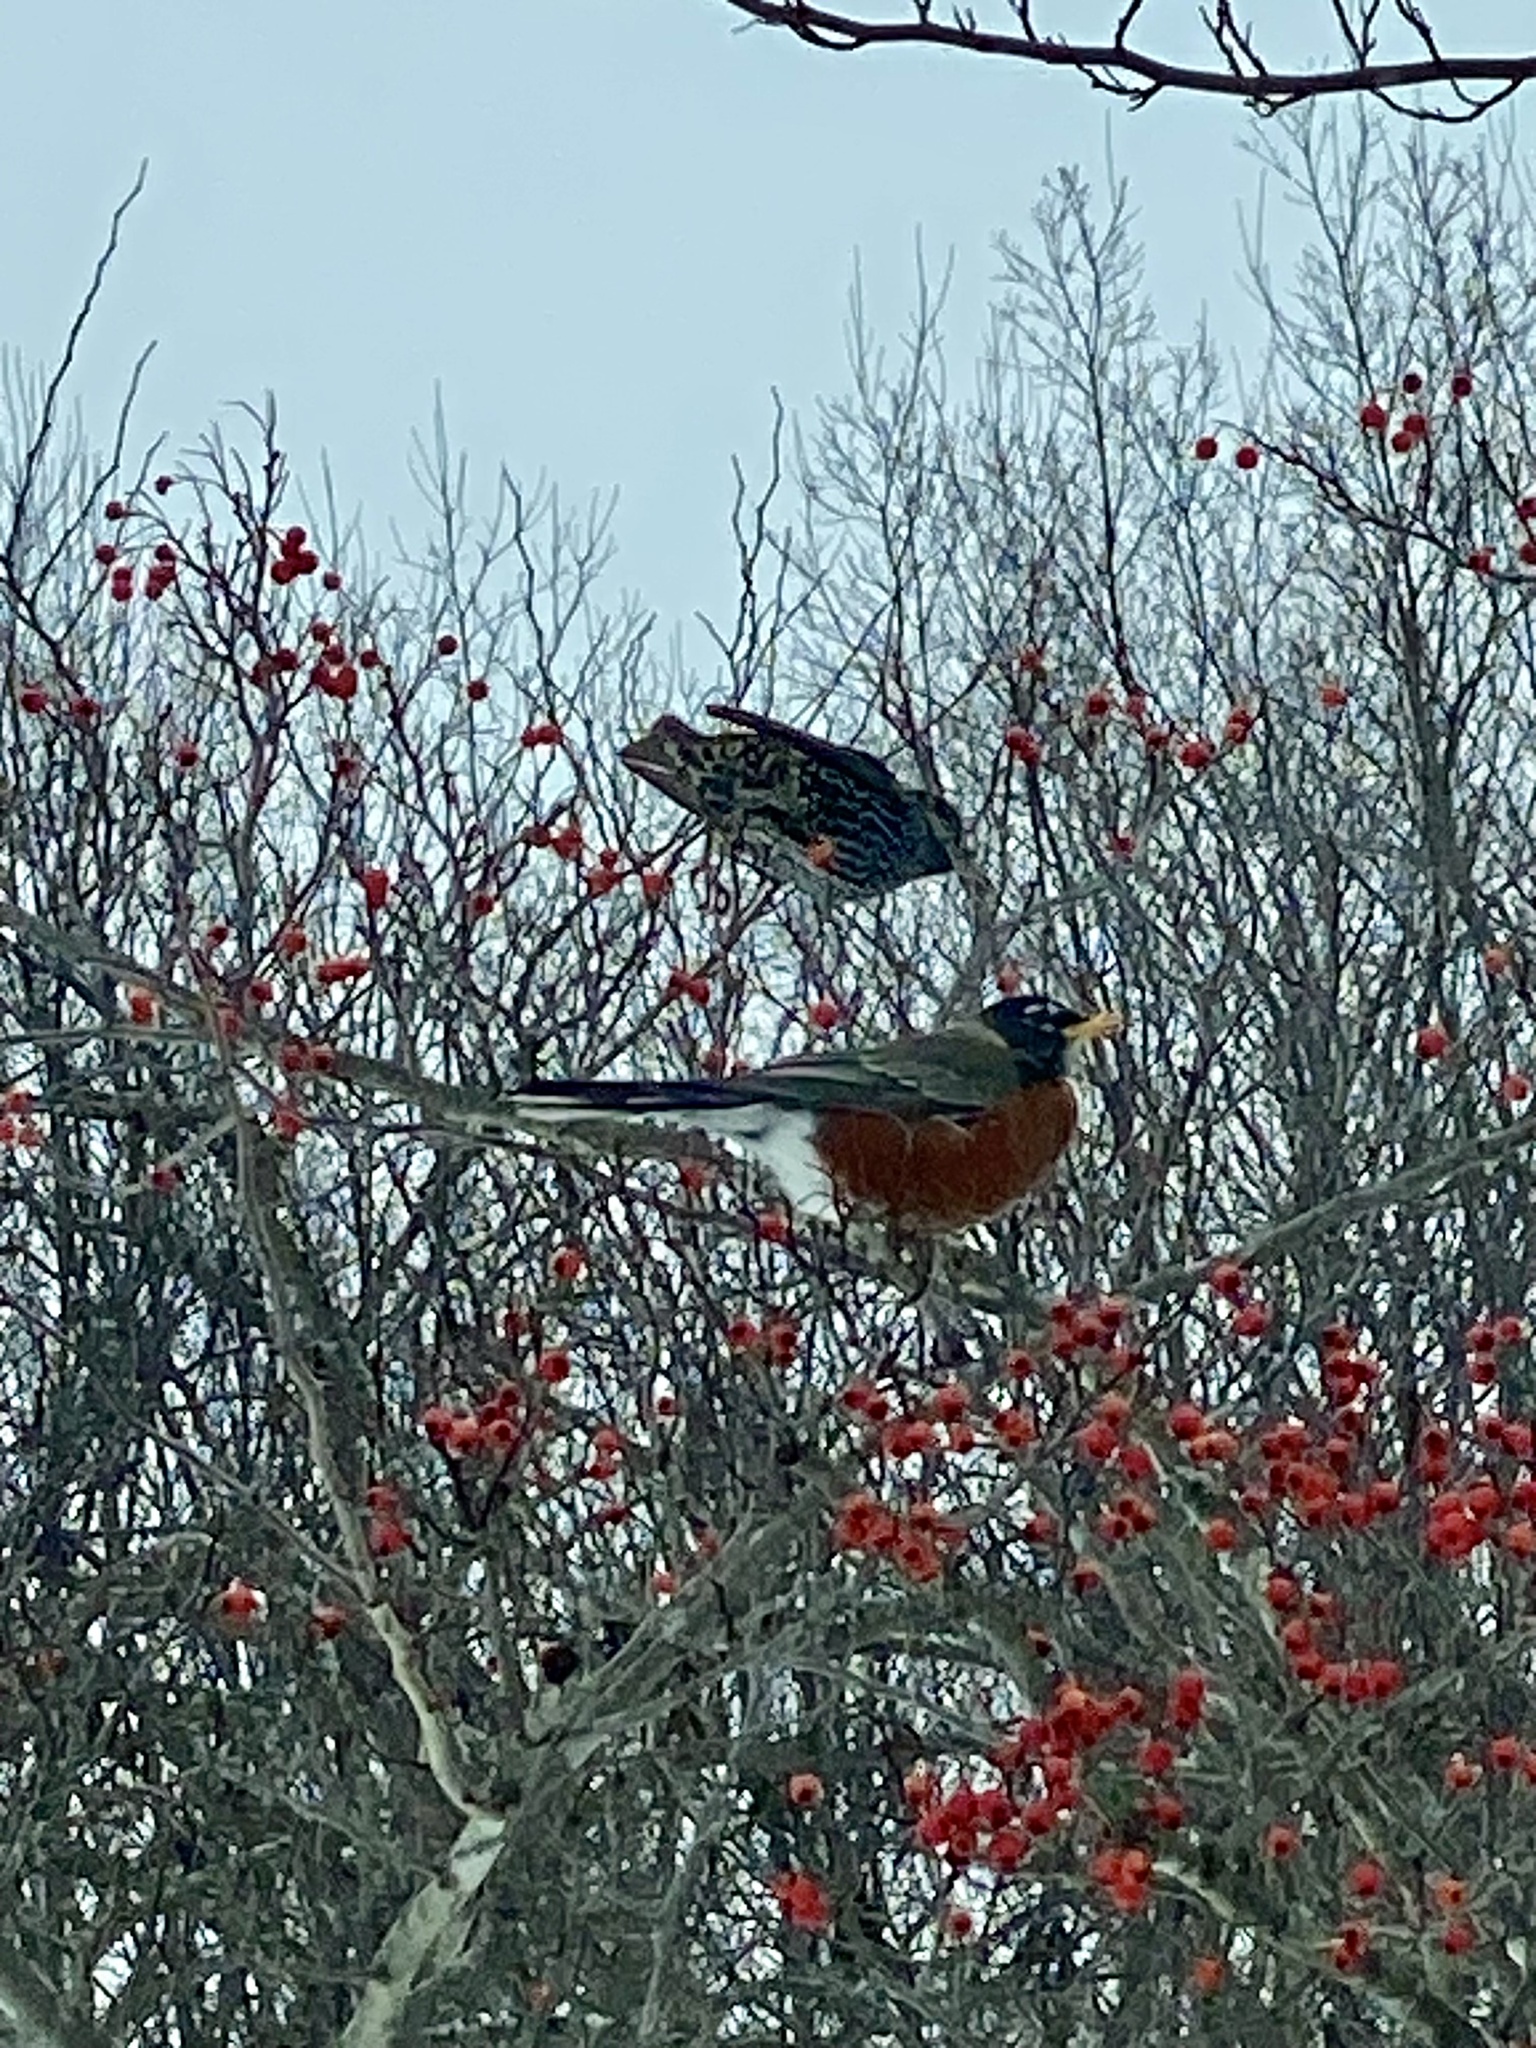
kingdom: Animalia
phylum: Chordata
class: Aves
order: Passeriformes
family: Turdidae
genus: Turdus
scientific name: Turdus migratorius
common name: American robin
